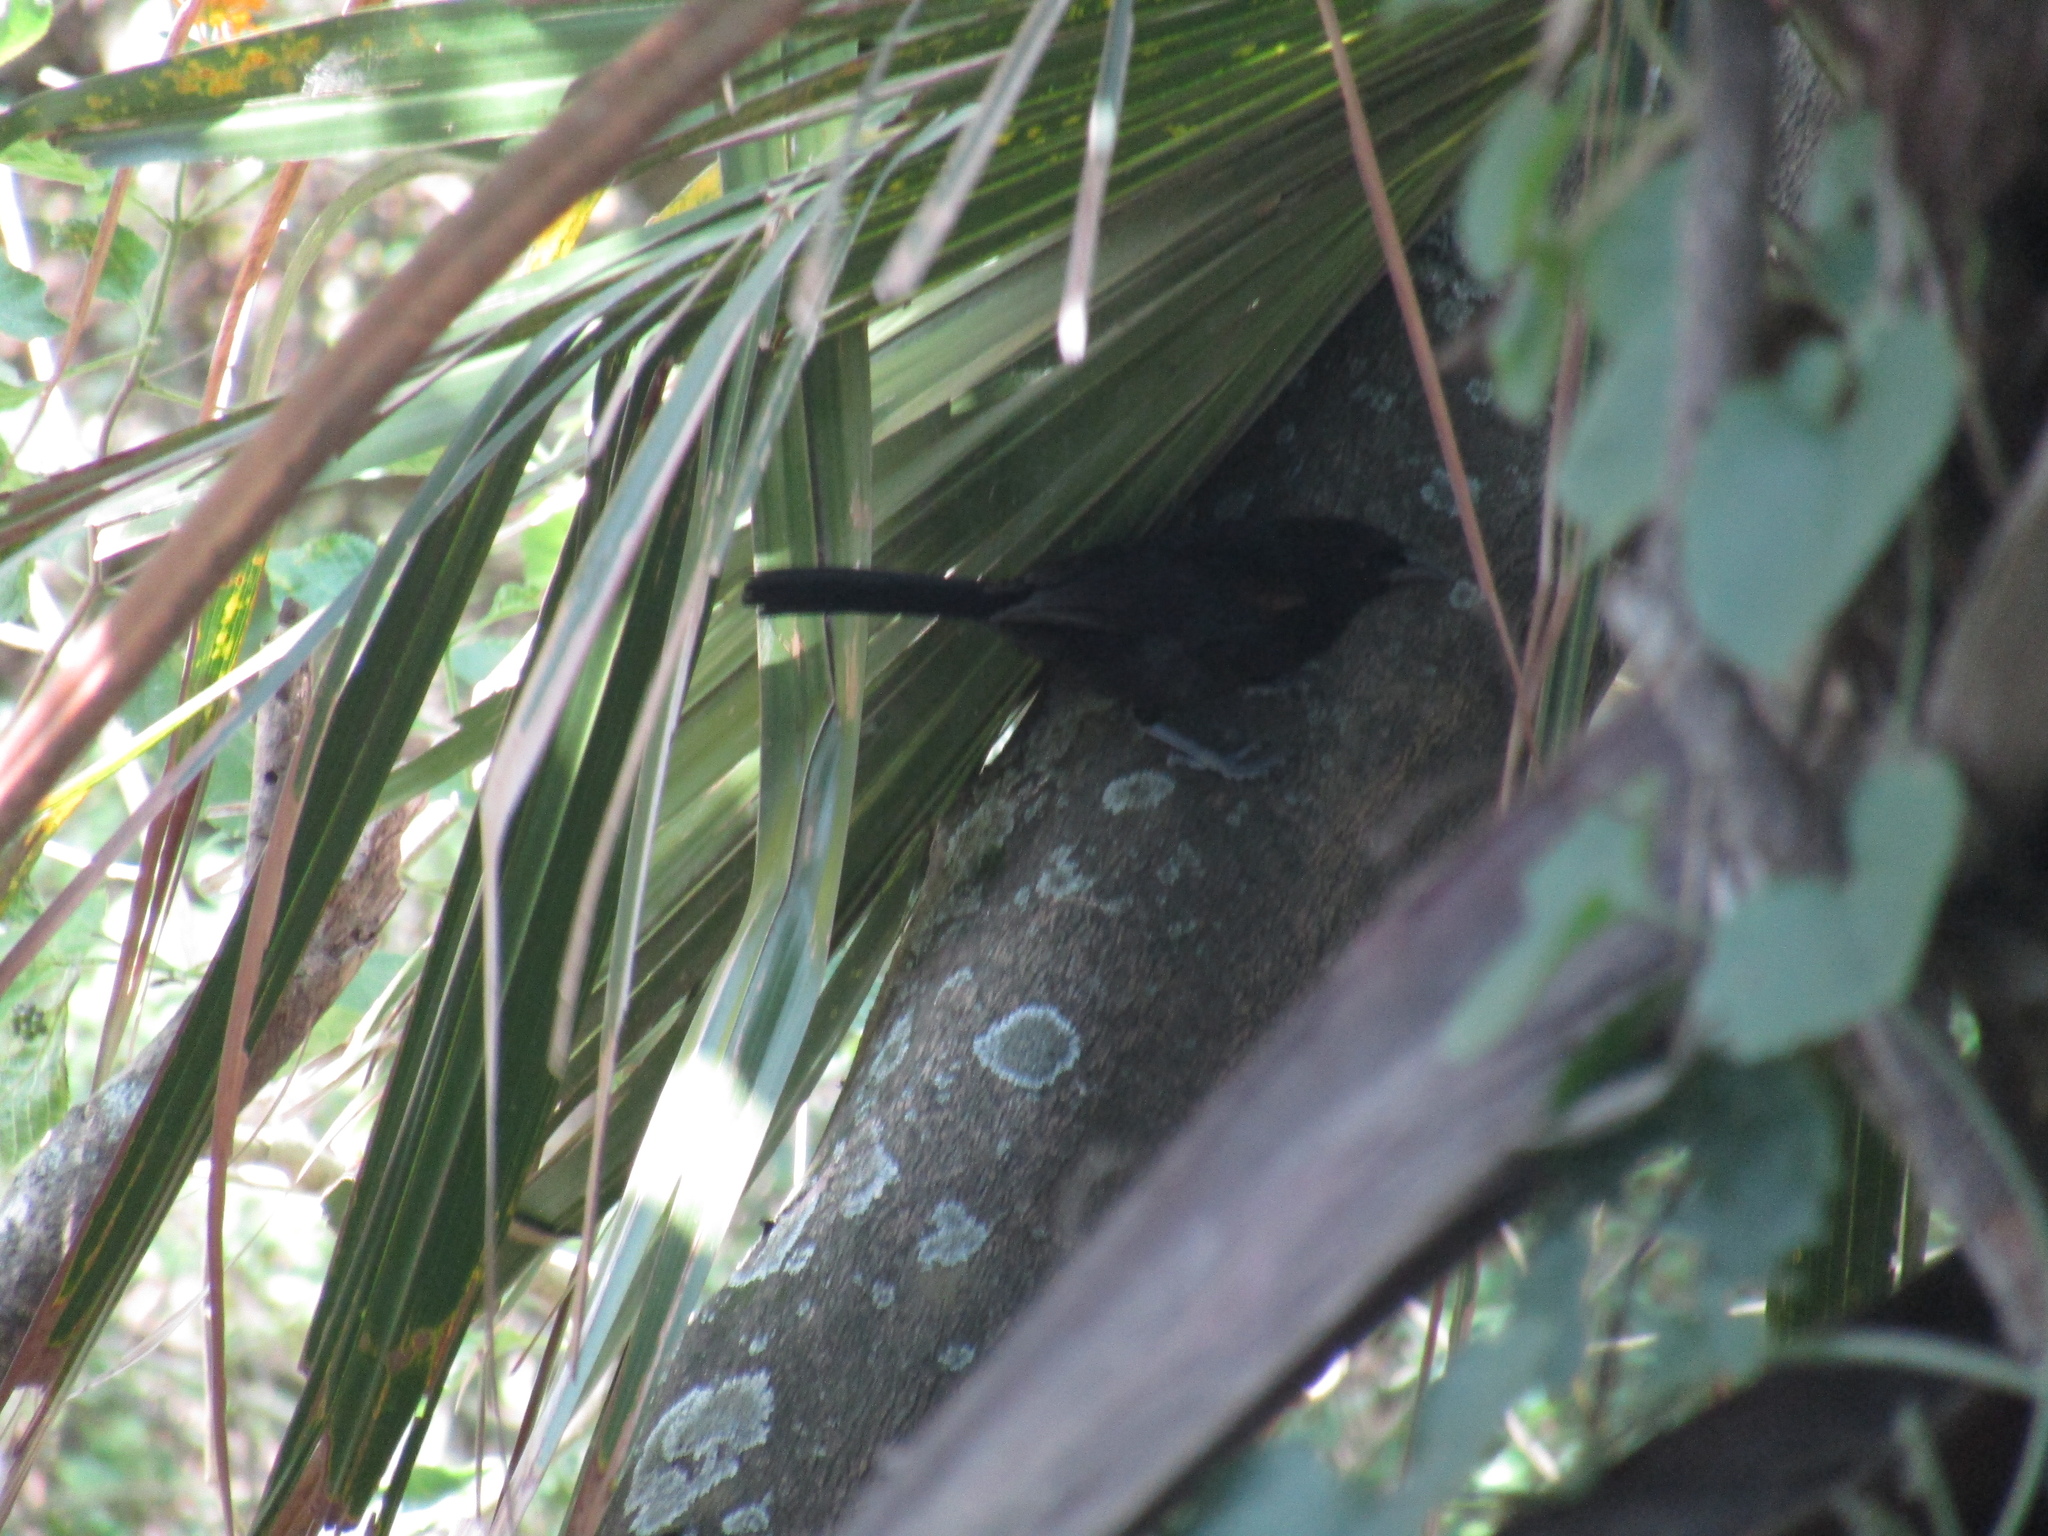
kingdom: Animalia
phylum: Chordata
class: Aves
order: Passeriformes
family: Icteridae
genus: Icterus
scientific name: Icterus cayanensis
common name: Epaulet oriole
